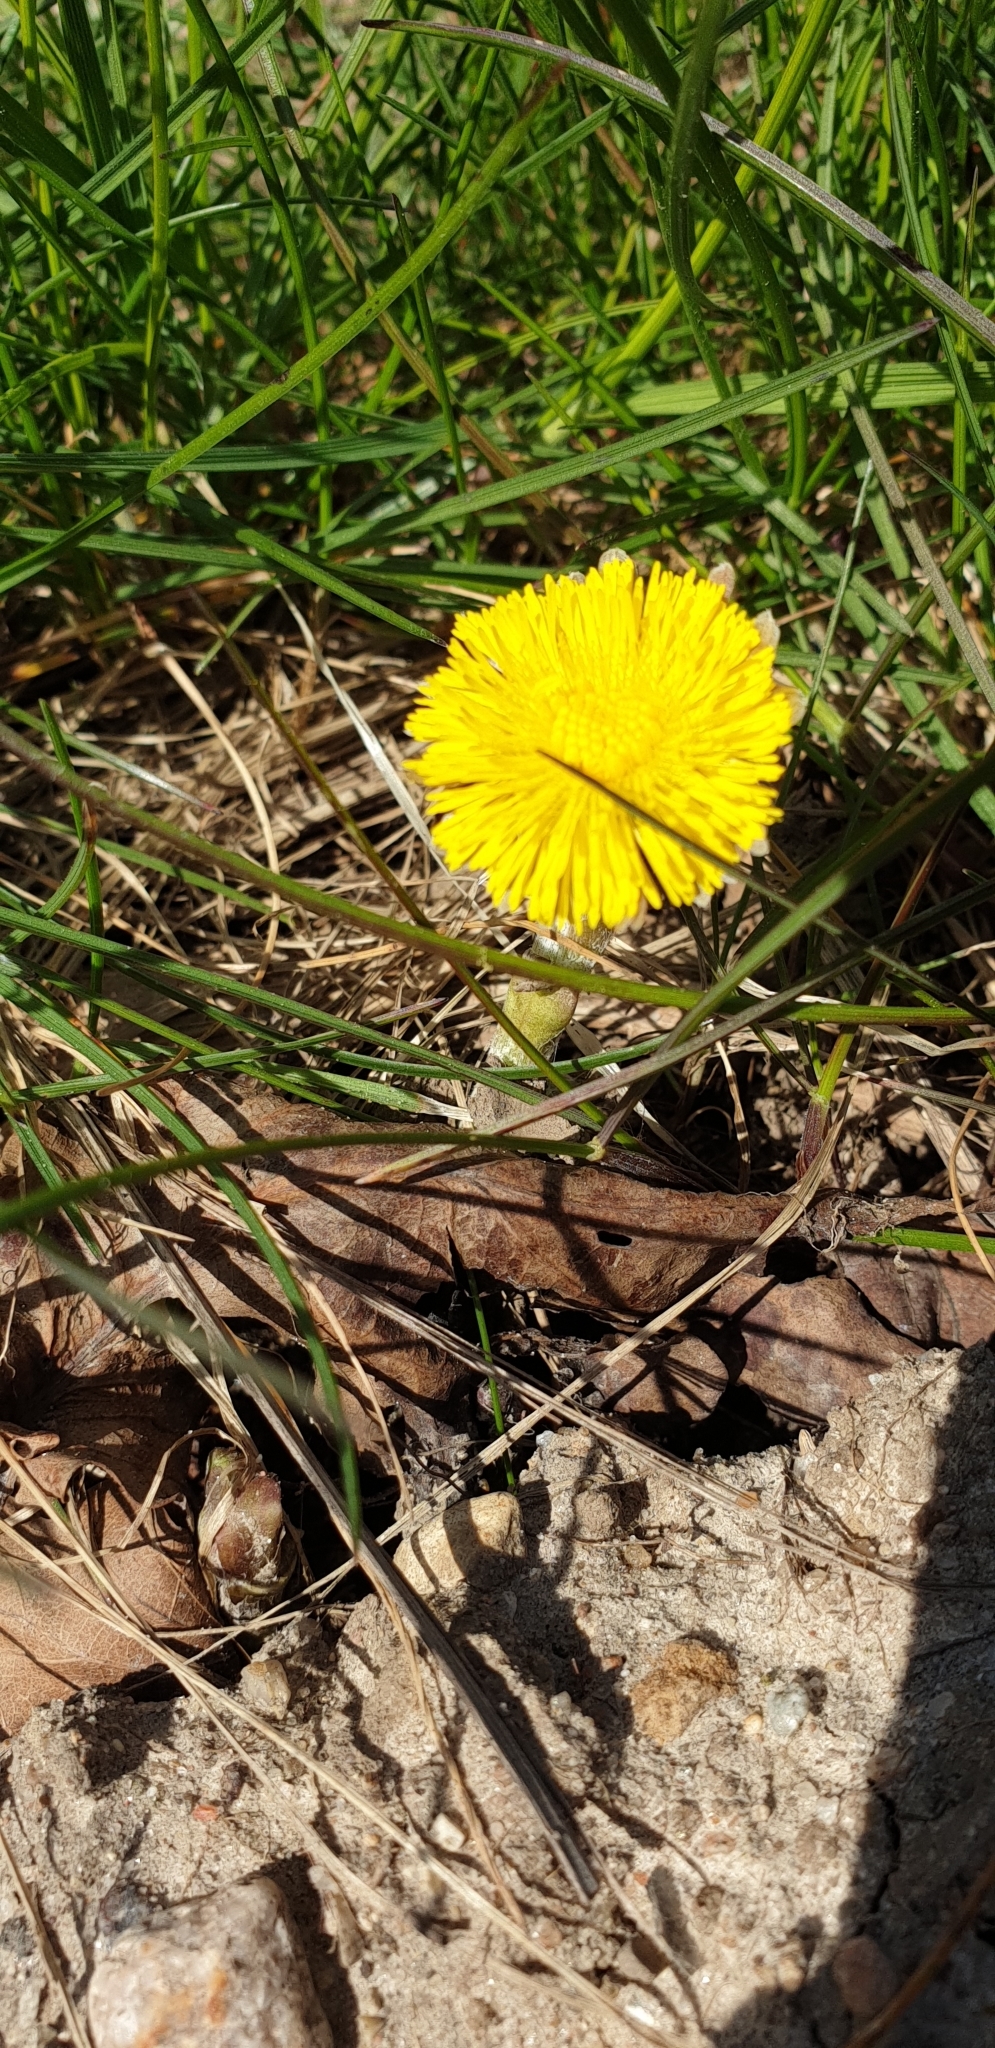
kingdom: Plantae
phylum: Tracheophyta
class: Magnoliopsida
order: Asterales
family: Asteraceae
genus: Tussilago
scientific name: Tussilago farfara
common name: Coltsfoot
